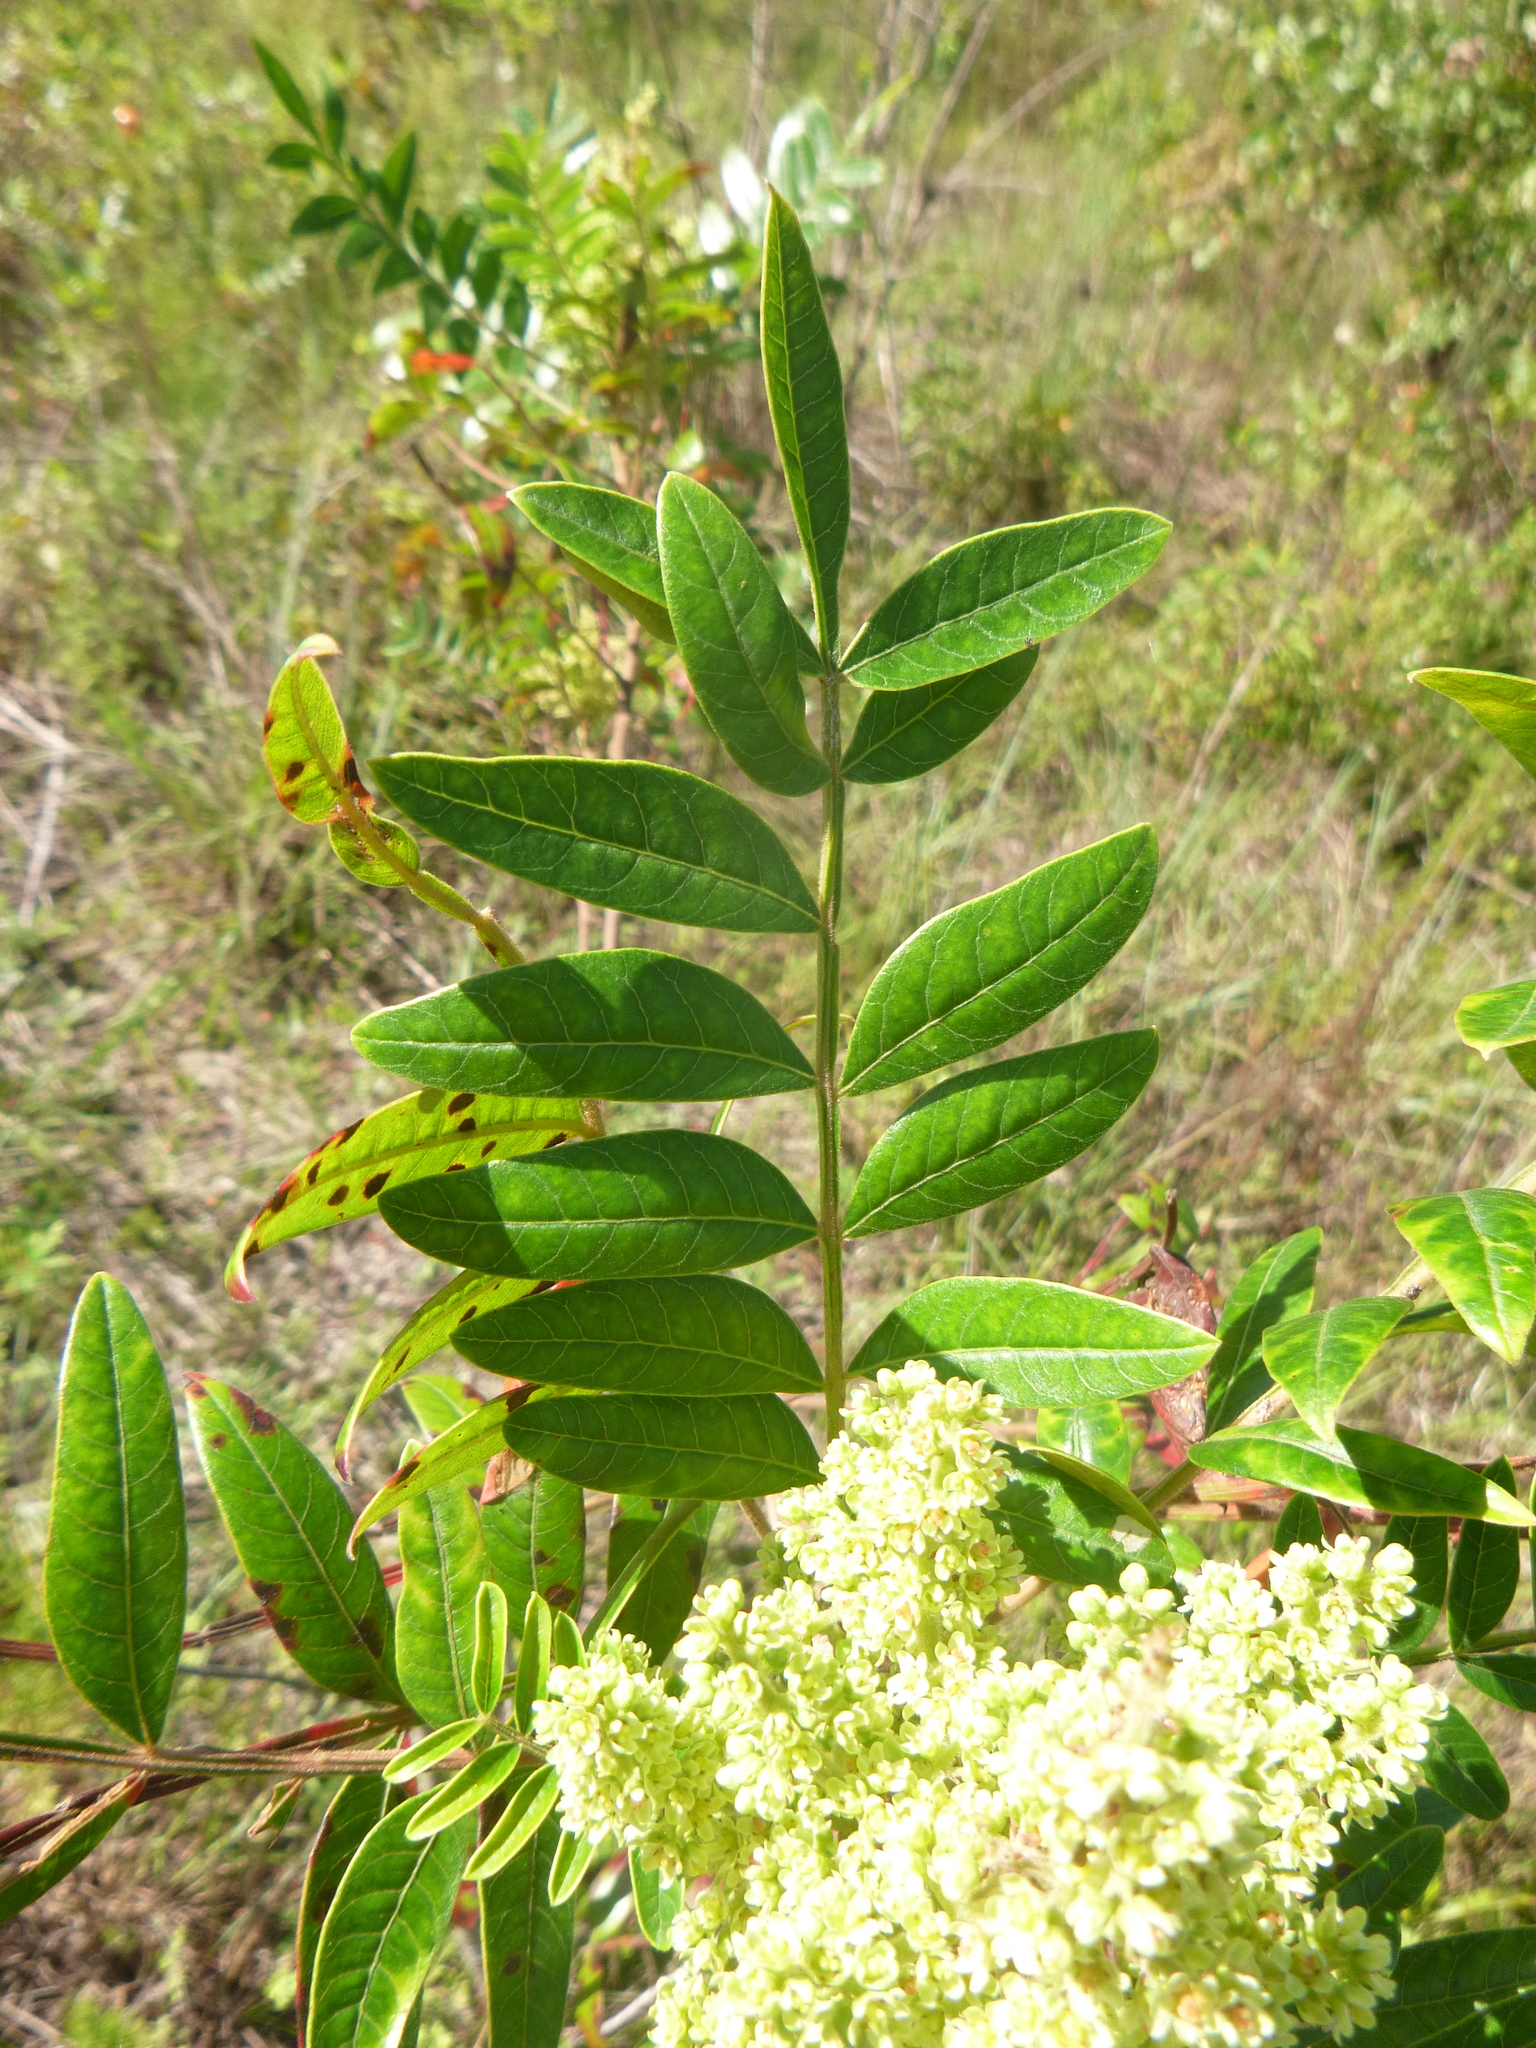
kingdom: Plantae
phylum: Tracheophyta
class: Magnoliopsida
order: Sapindales
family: Anacardiaceae
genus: Rhus
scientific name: Rhus copallina
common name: Shining sumac
